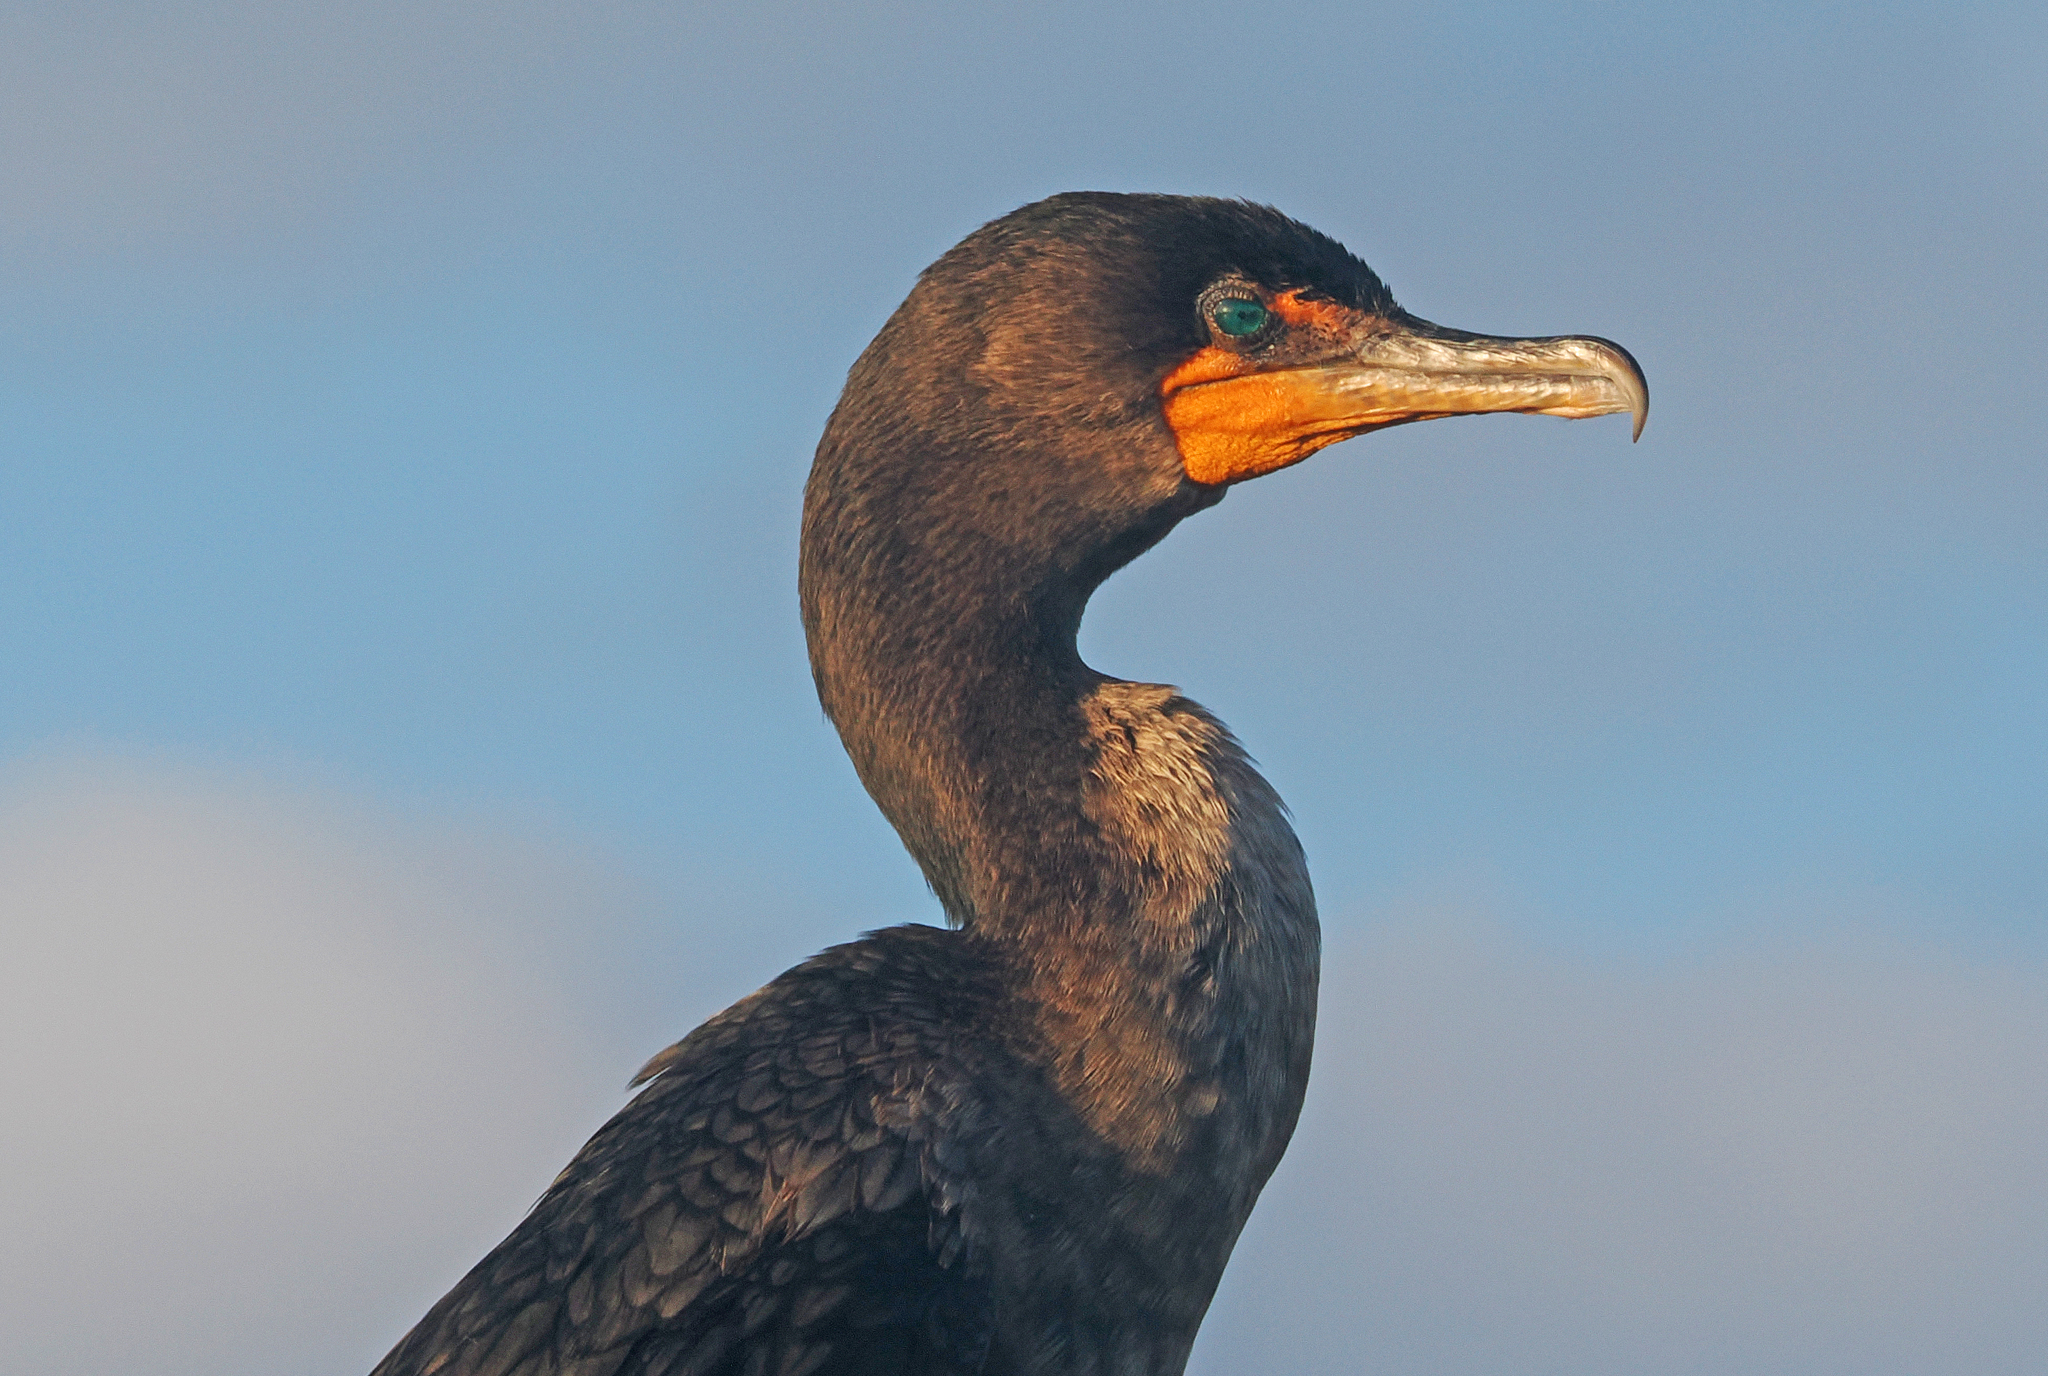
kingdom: Animalia
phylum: Chordata
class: Aves
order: Suliformes
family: Phalacrocoracidae
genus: Phalacrocorax
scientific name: Phalacrocorax auritus
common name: Double-crested cormorant
